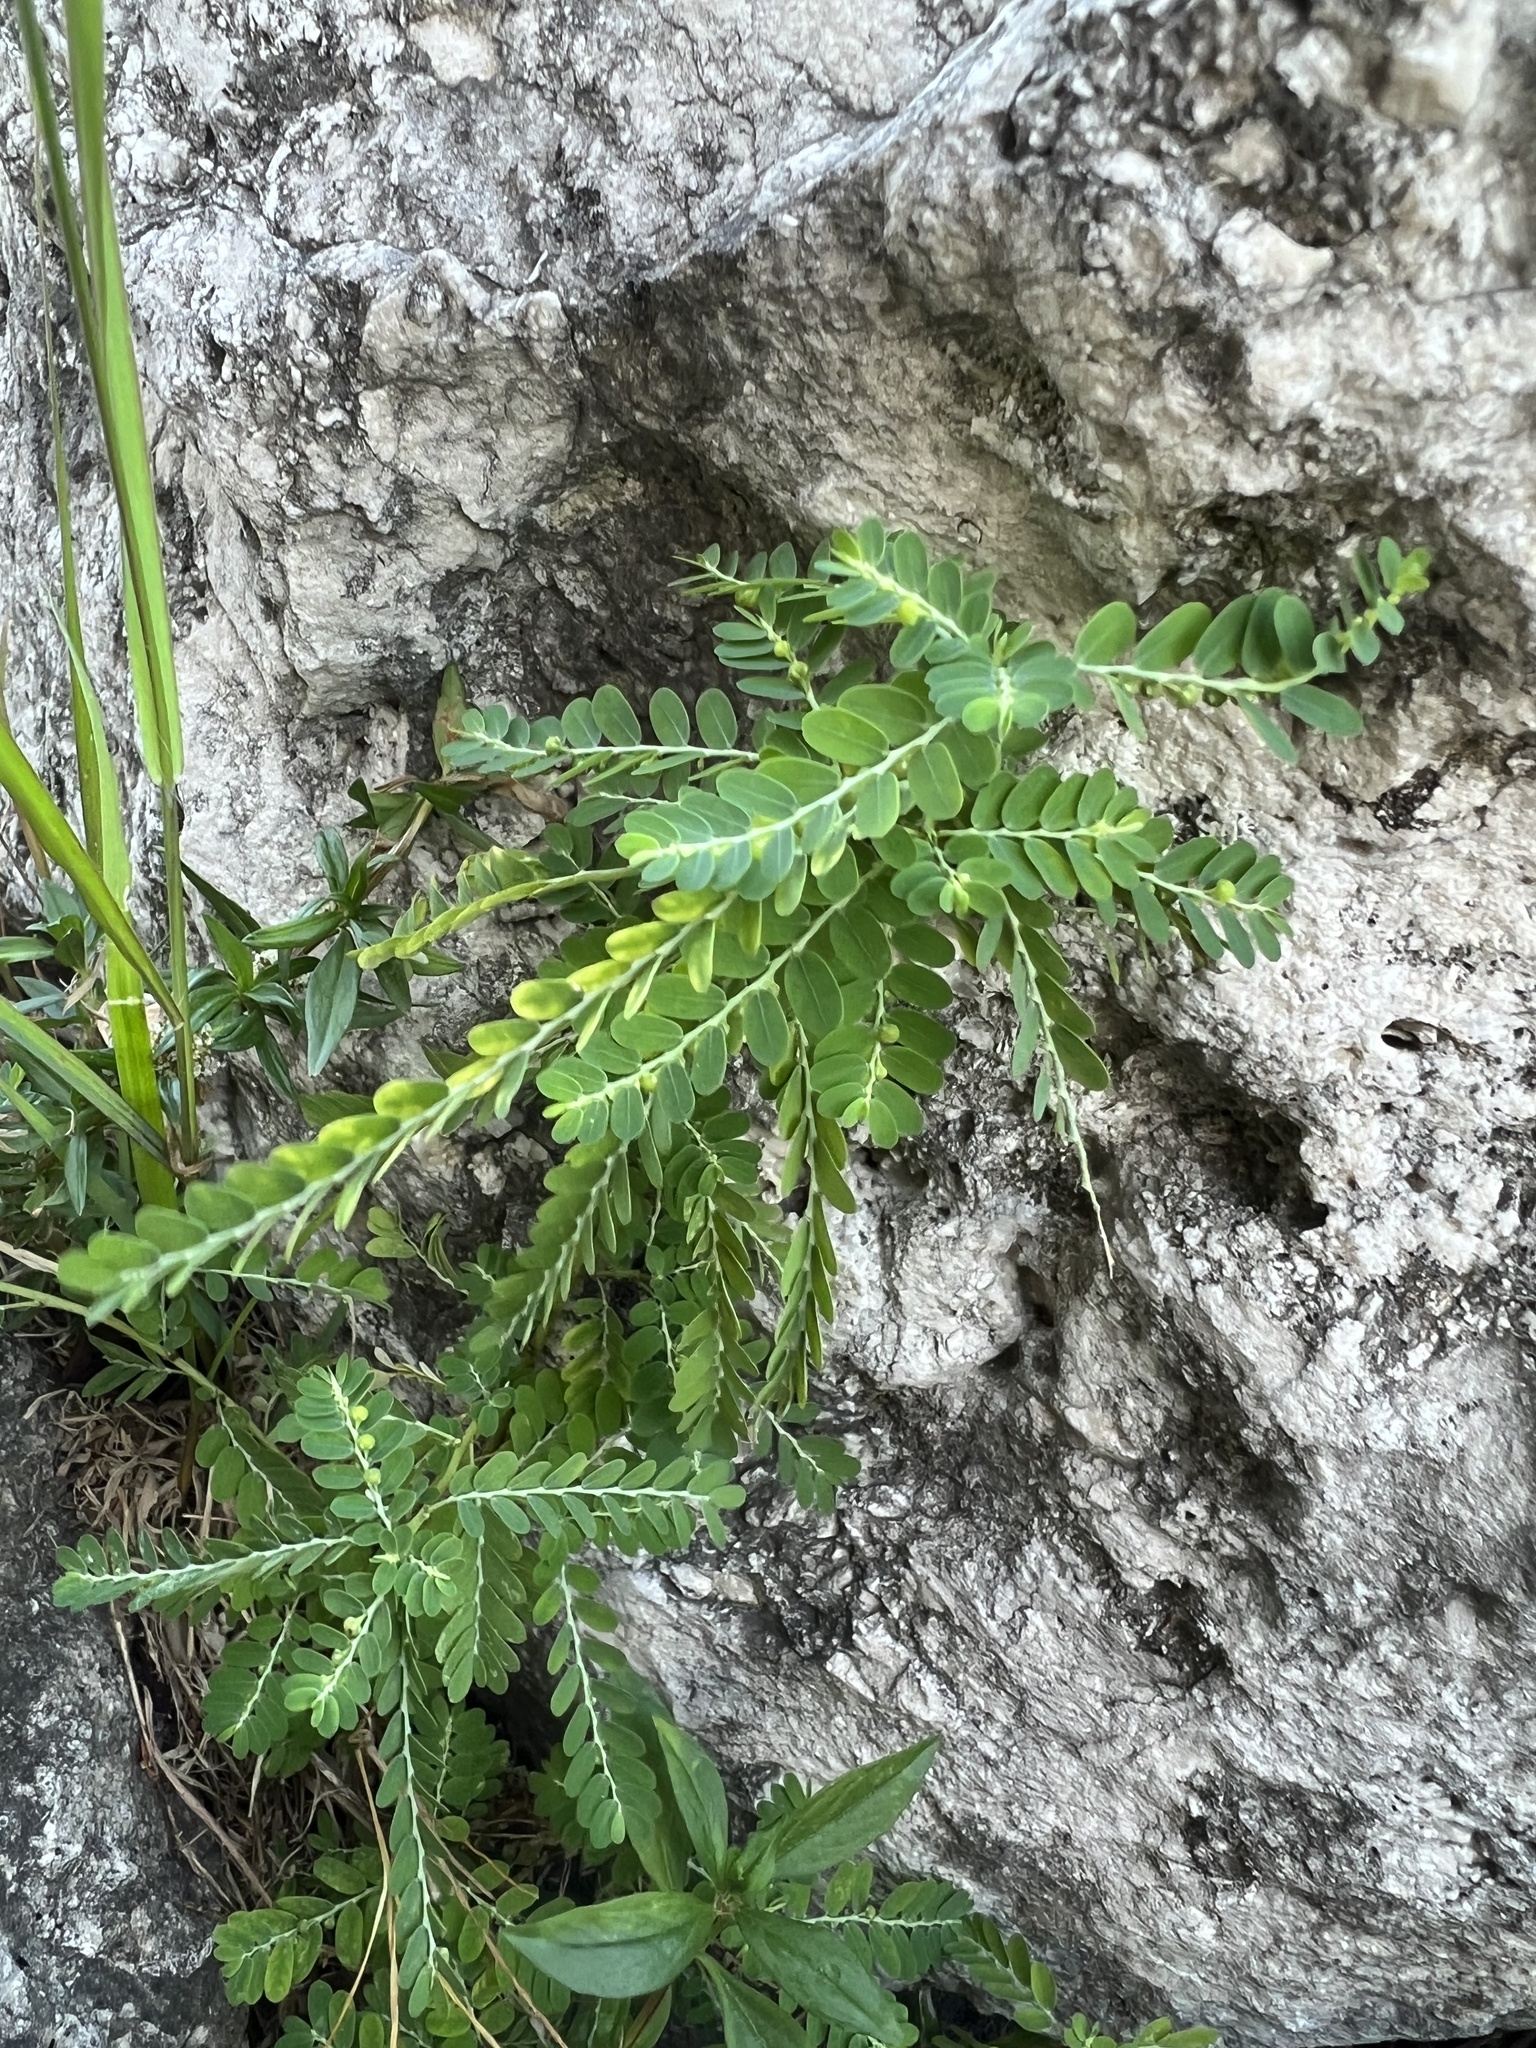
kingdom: Plantae
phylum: Tracheophyta
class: Magnoliopsida
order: Malpighiales
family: Phyllanthaceae
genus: Phyllanthus
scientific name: Phyllanthus amarus
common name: Carry me seed
